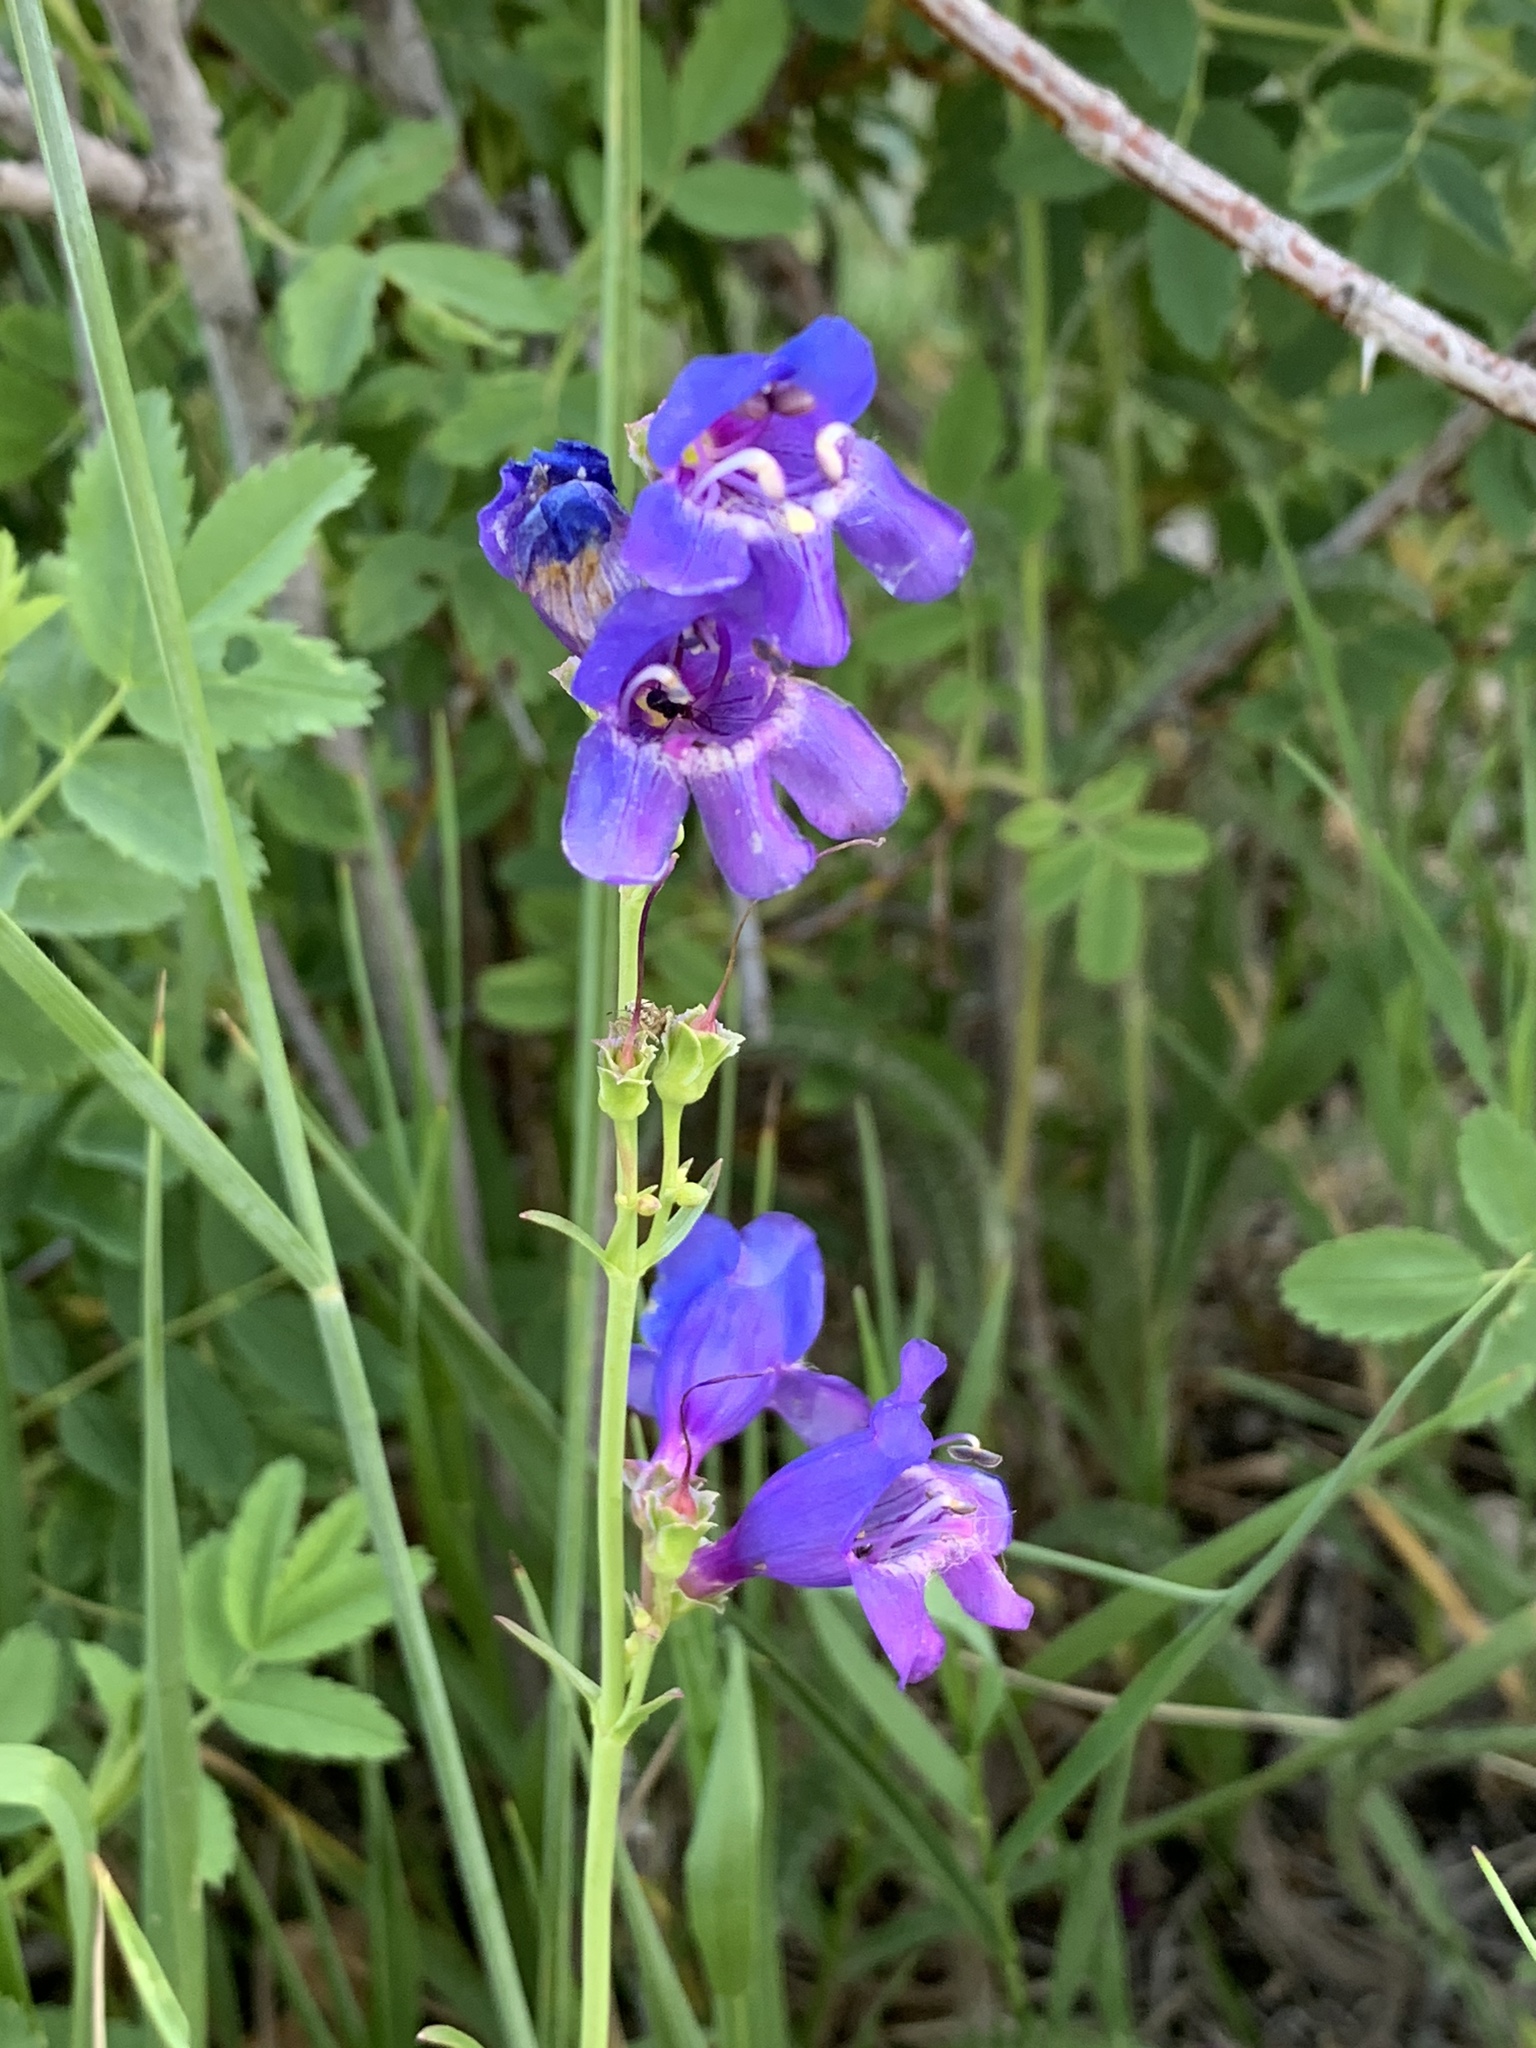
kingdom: Plantae
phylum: Tracheophyta
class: Magnoliopsida
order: Lamiales
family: Plantaginaceae
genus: Penstemon
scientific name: Penstemon neomexicanus
